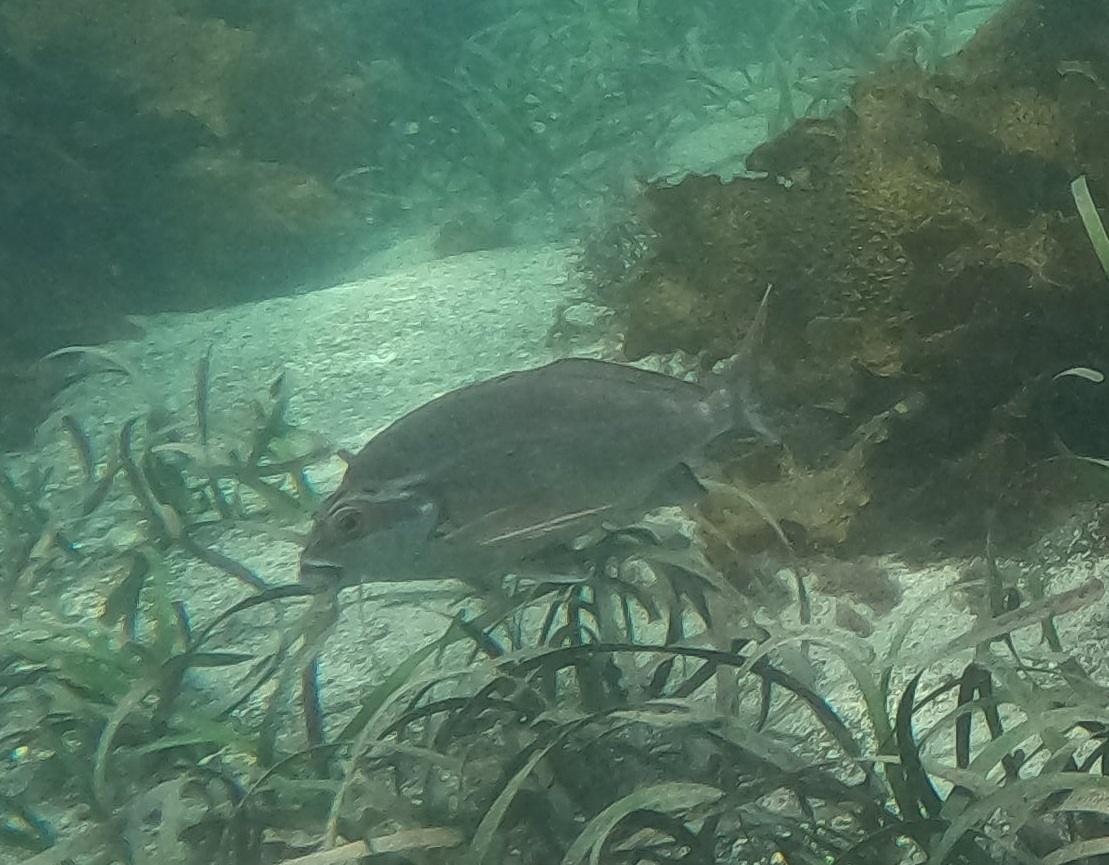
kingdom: Animalia
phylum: Chordata
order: Perciformes
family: Latridae
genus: Morwong
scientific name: Morwong fuscus
